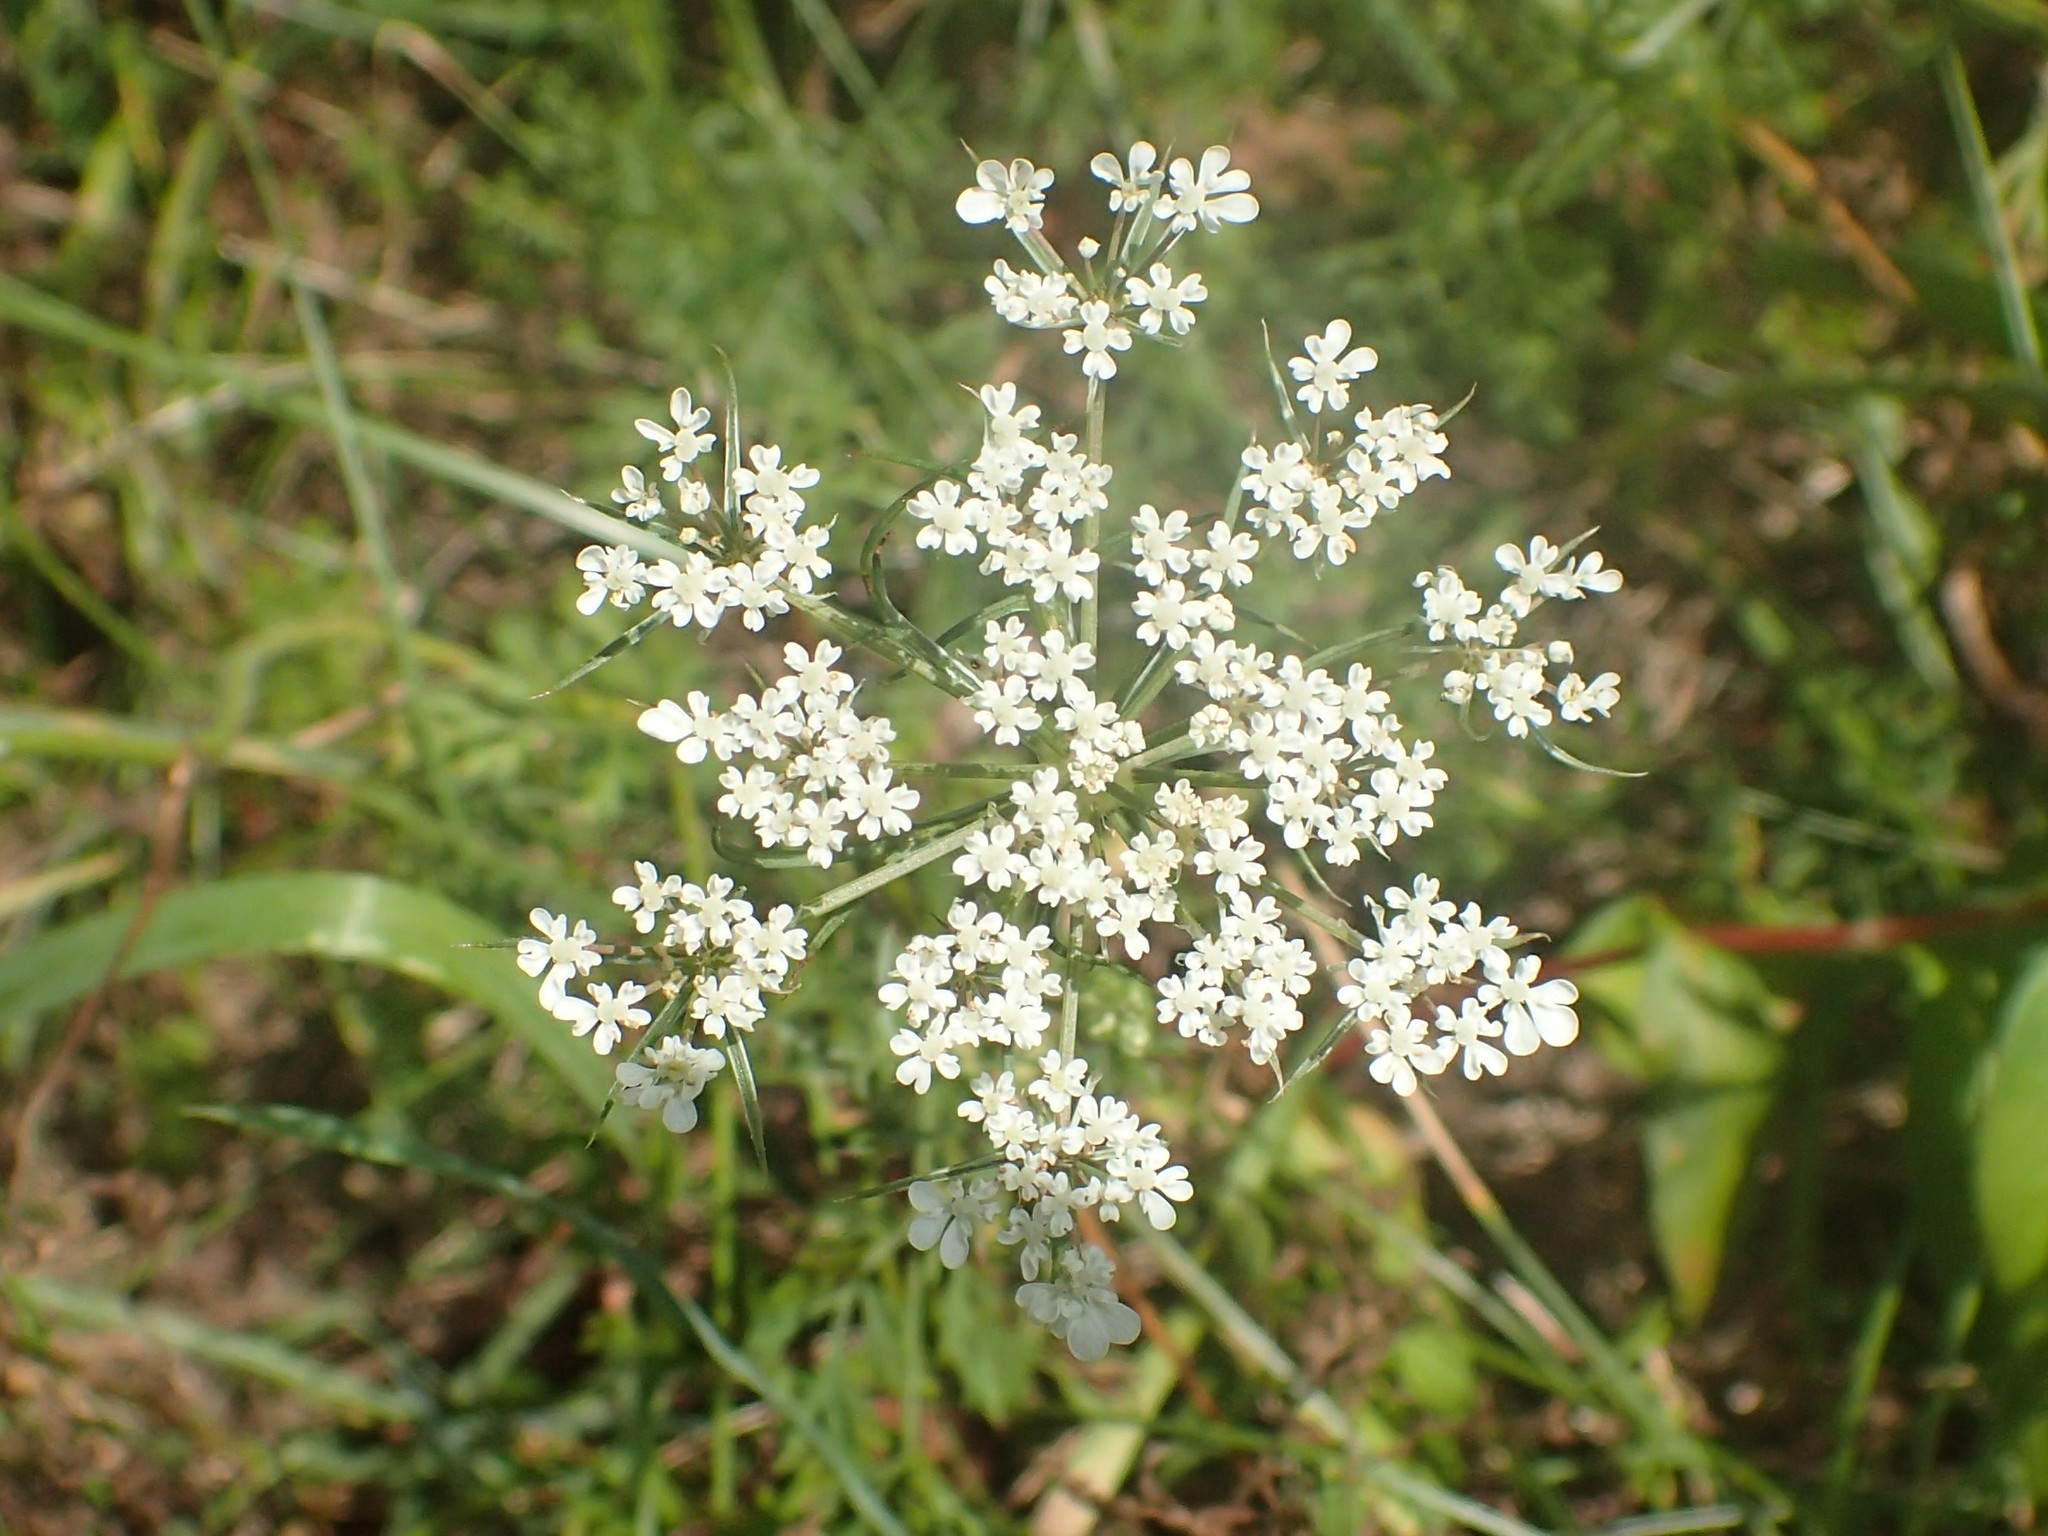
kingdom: Plantae
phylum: Tracheophyta
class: Magnoliopsida
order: Apiales
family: Apiaceae
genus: Daucus
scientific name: Daucus carota
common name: Wild carrot
